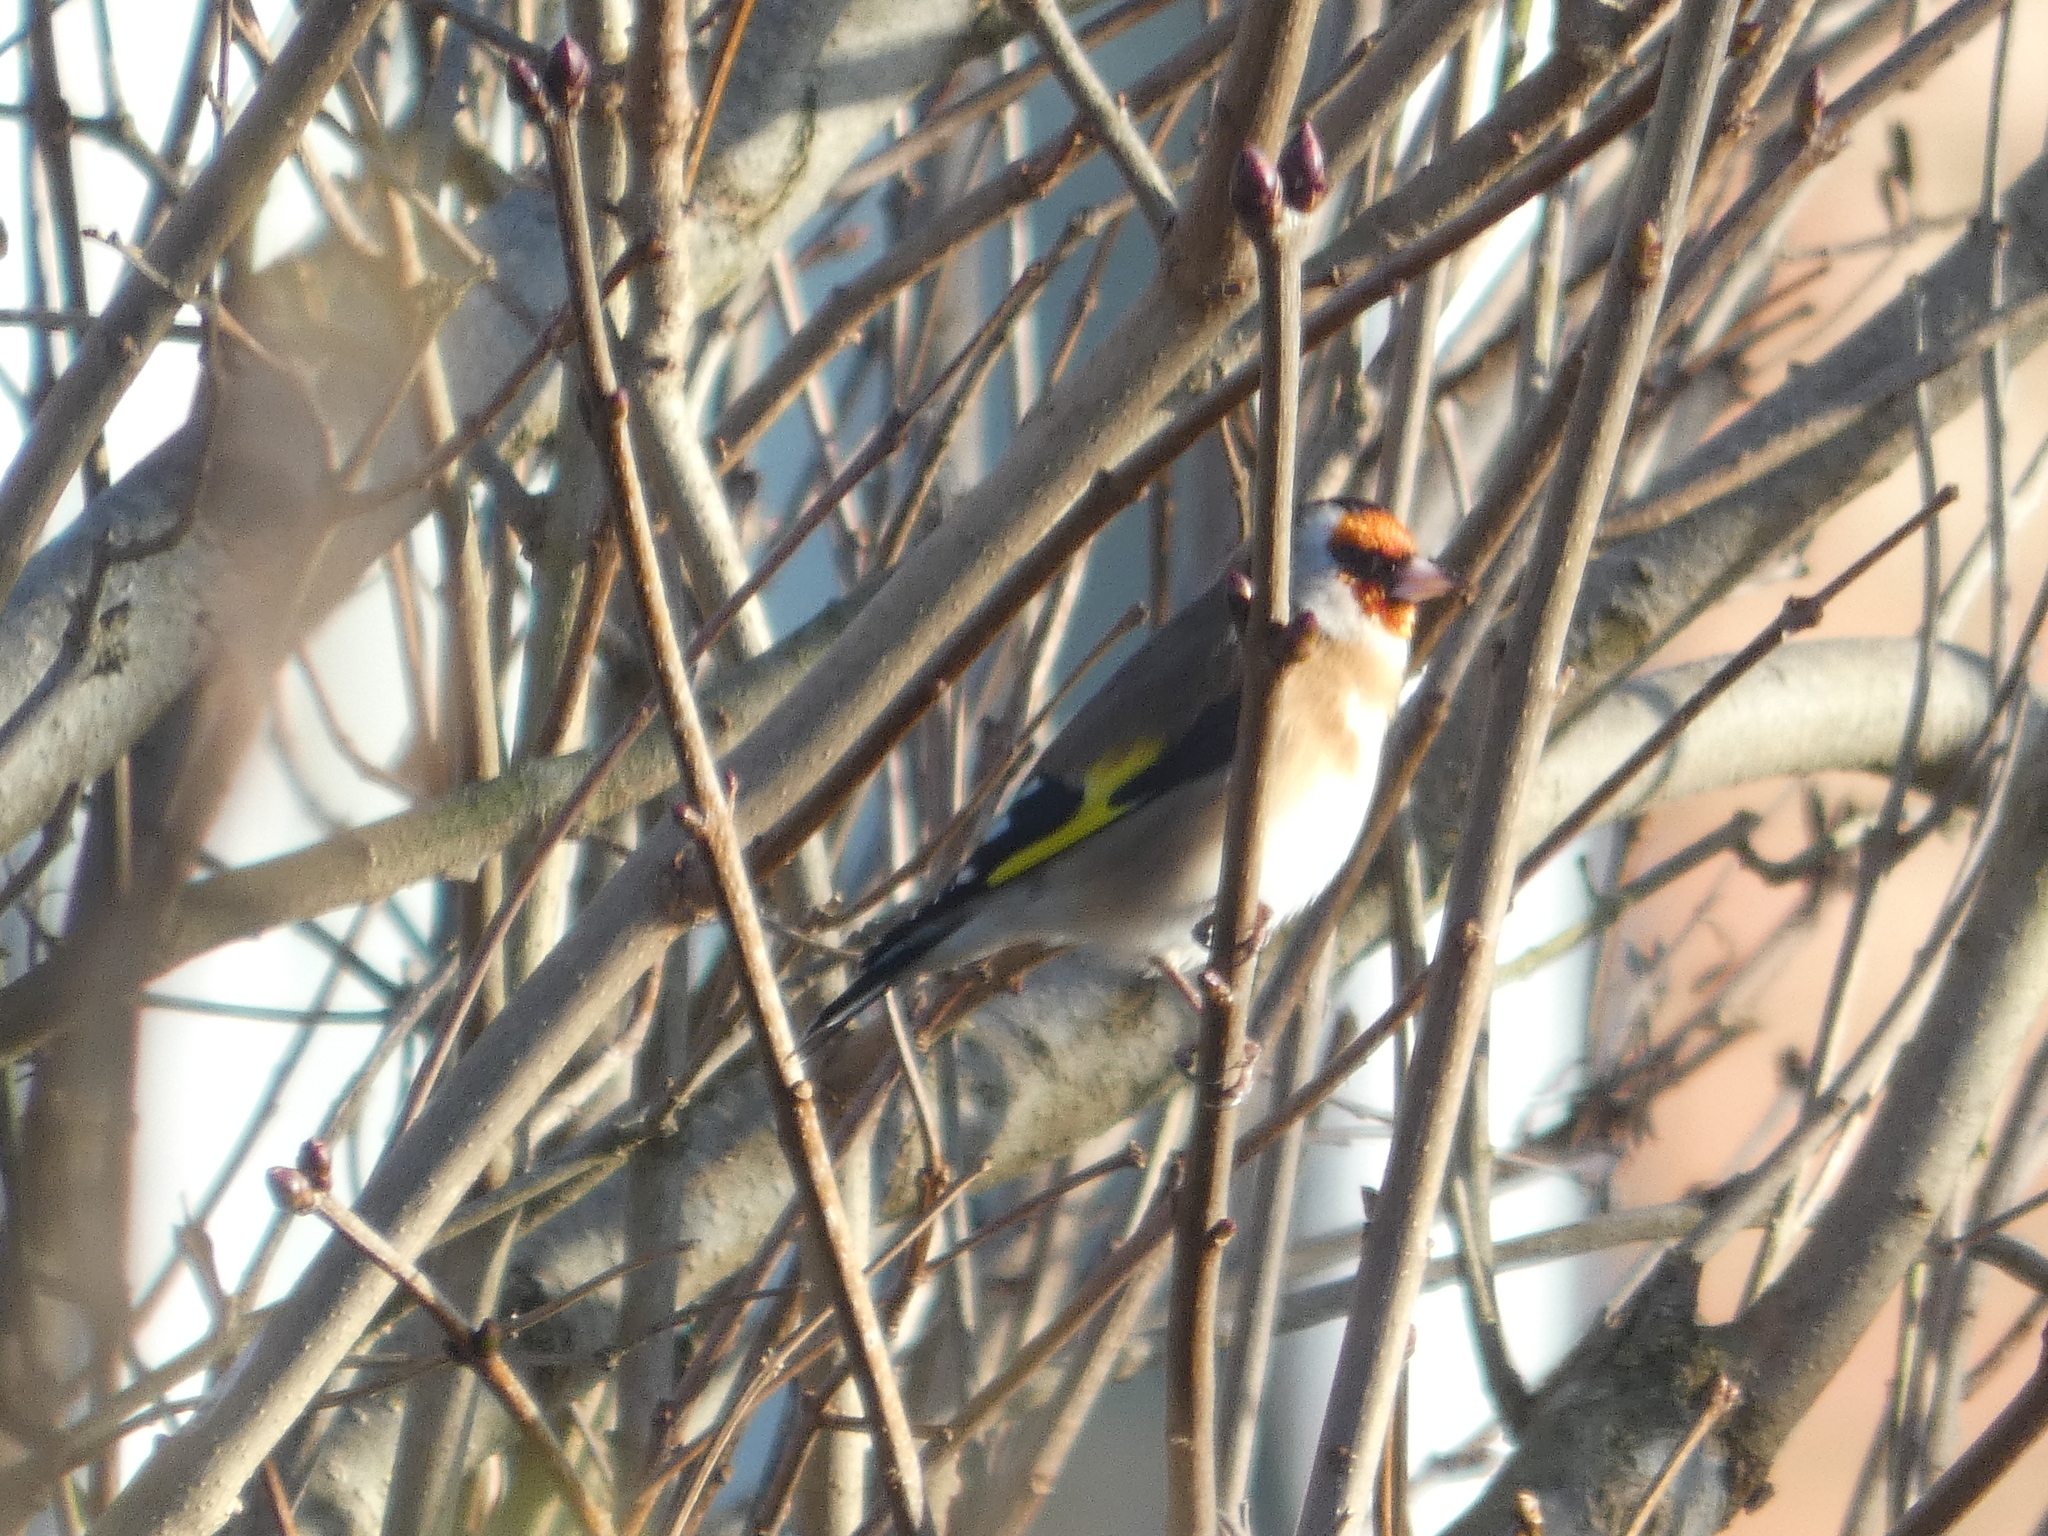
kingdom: Animalia
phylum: Chordata
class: Aves
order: Passeriformes
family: Fringillidae
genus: Carduelis
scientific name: Carduelis carduelis
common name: European goldfinch
